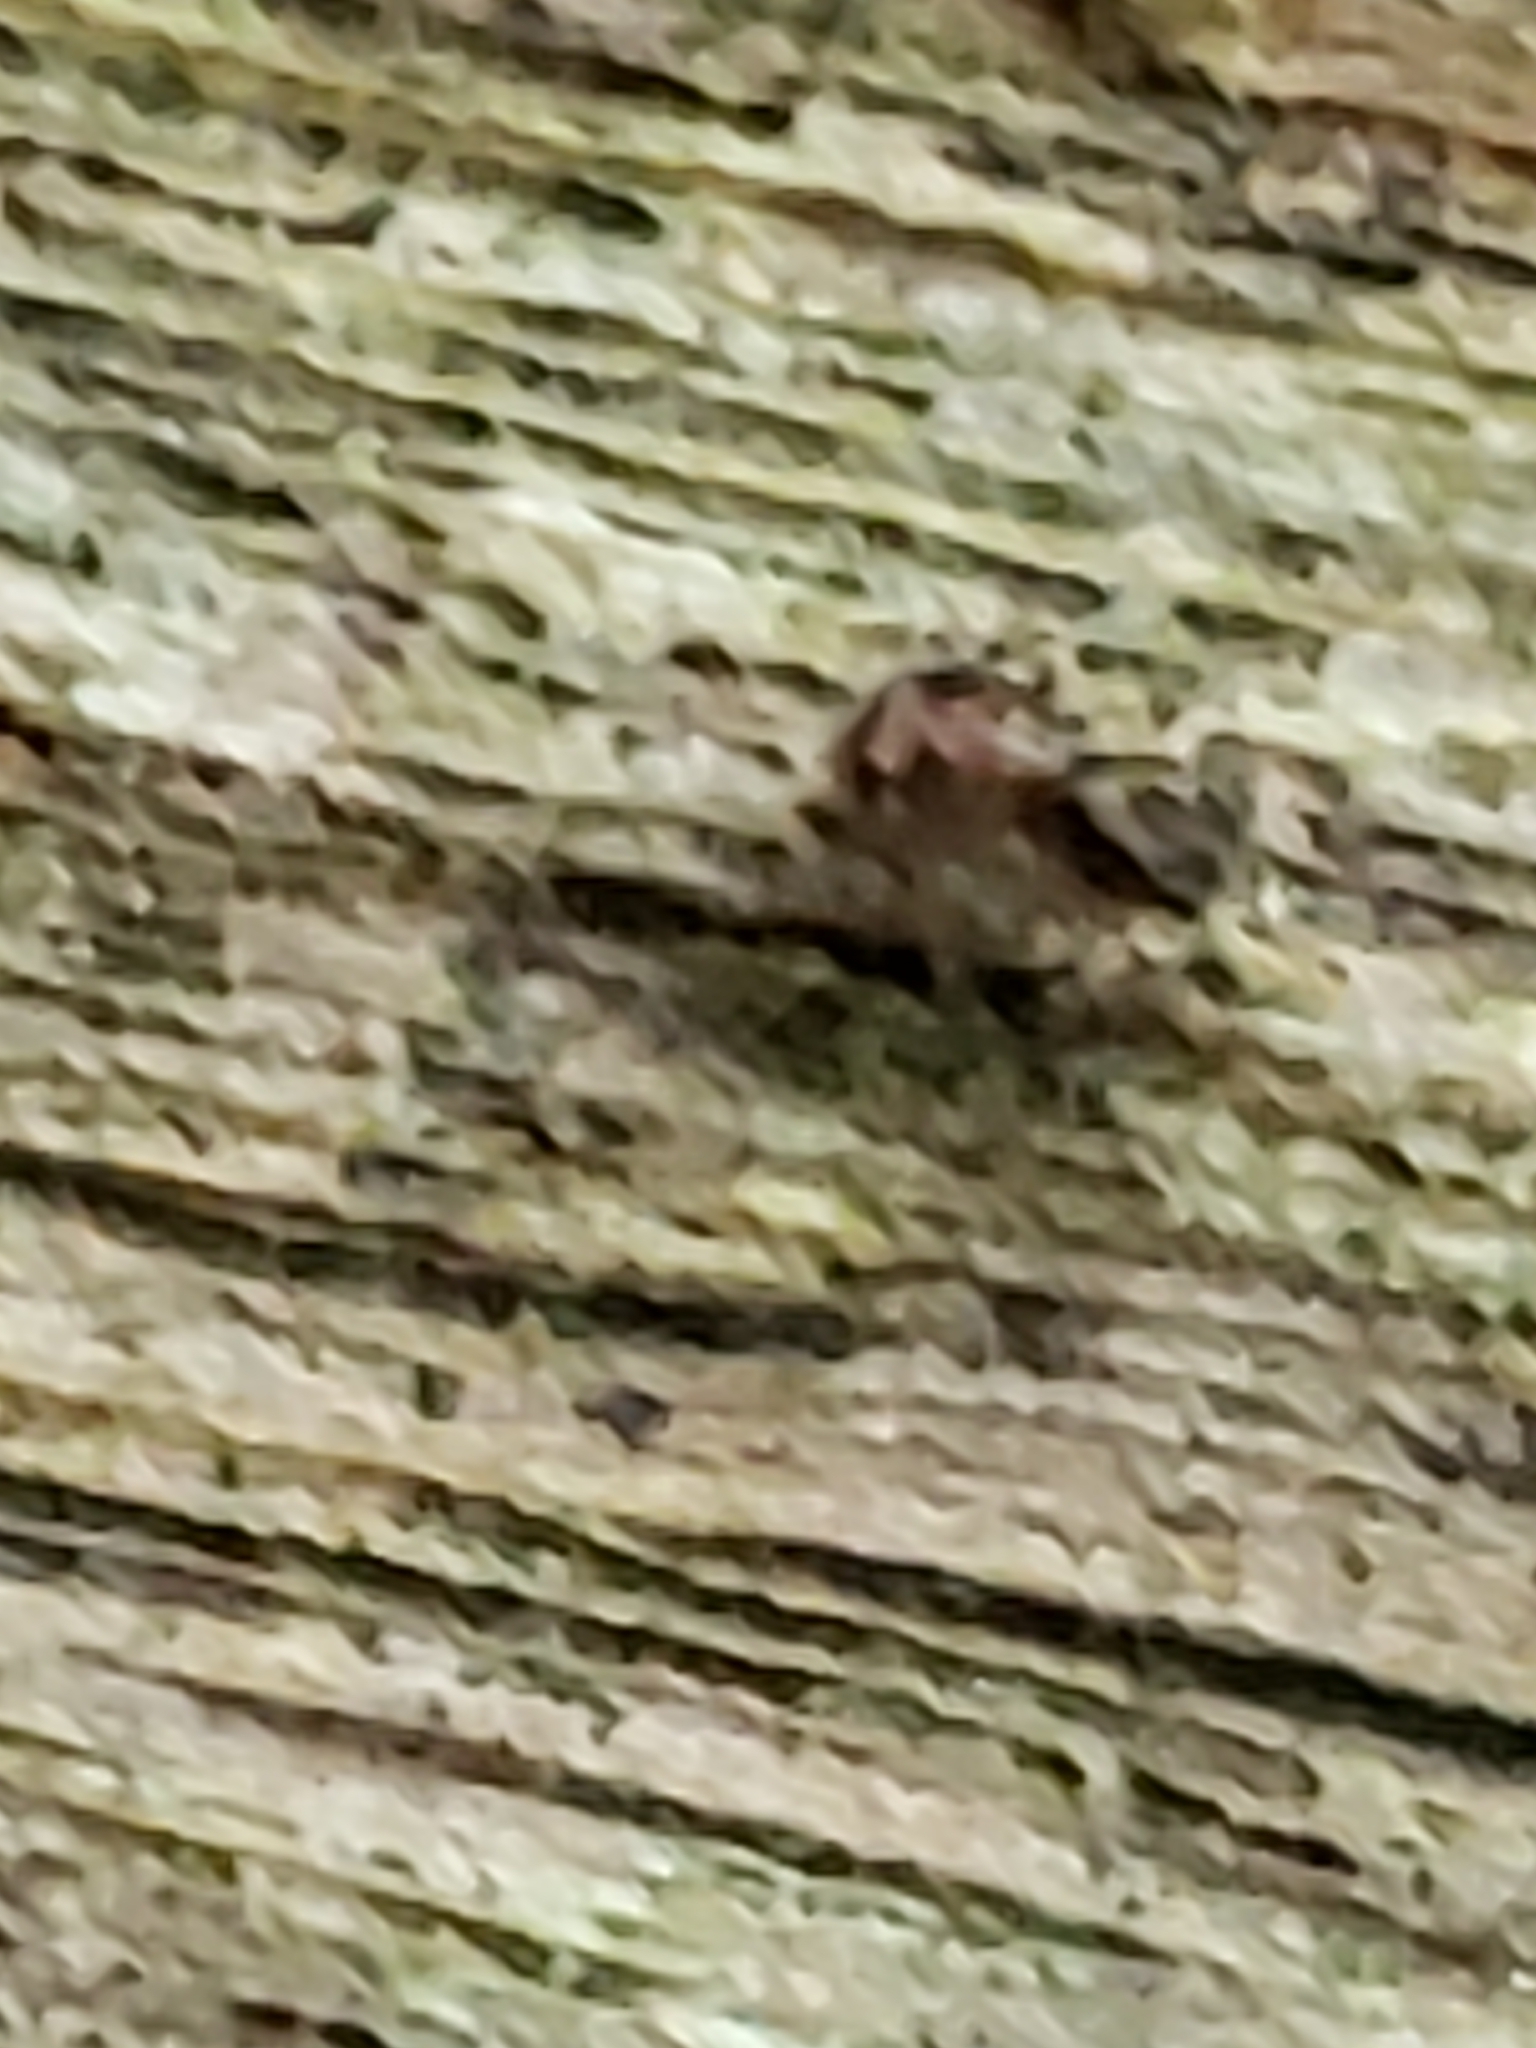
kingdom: Animalia
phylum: Arthropoda
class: Arachnida
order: Araneae
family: Salticidae
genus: Naphrys
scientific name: Naphrys pulex
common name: Flea jumping spider
